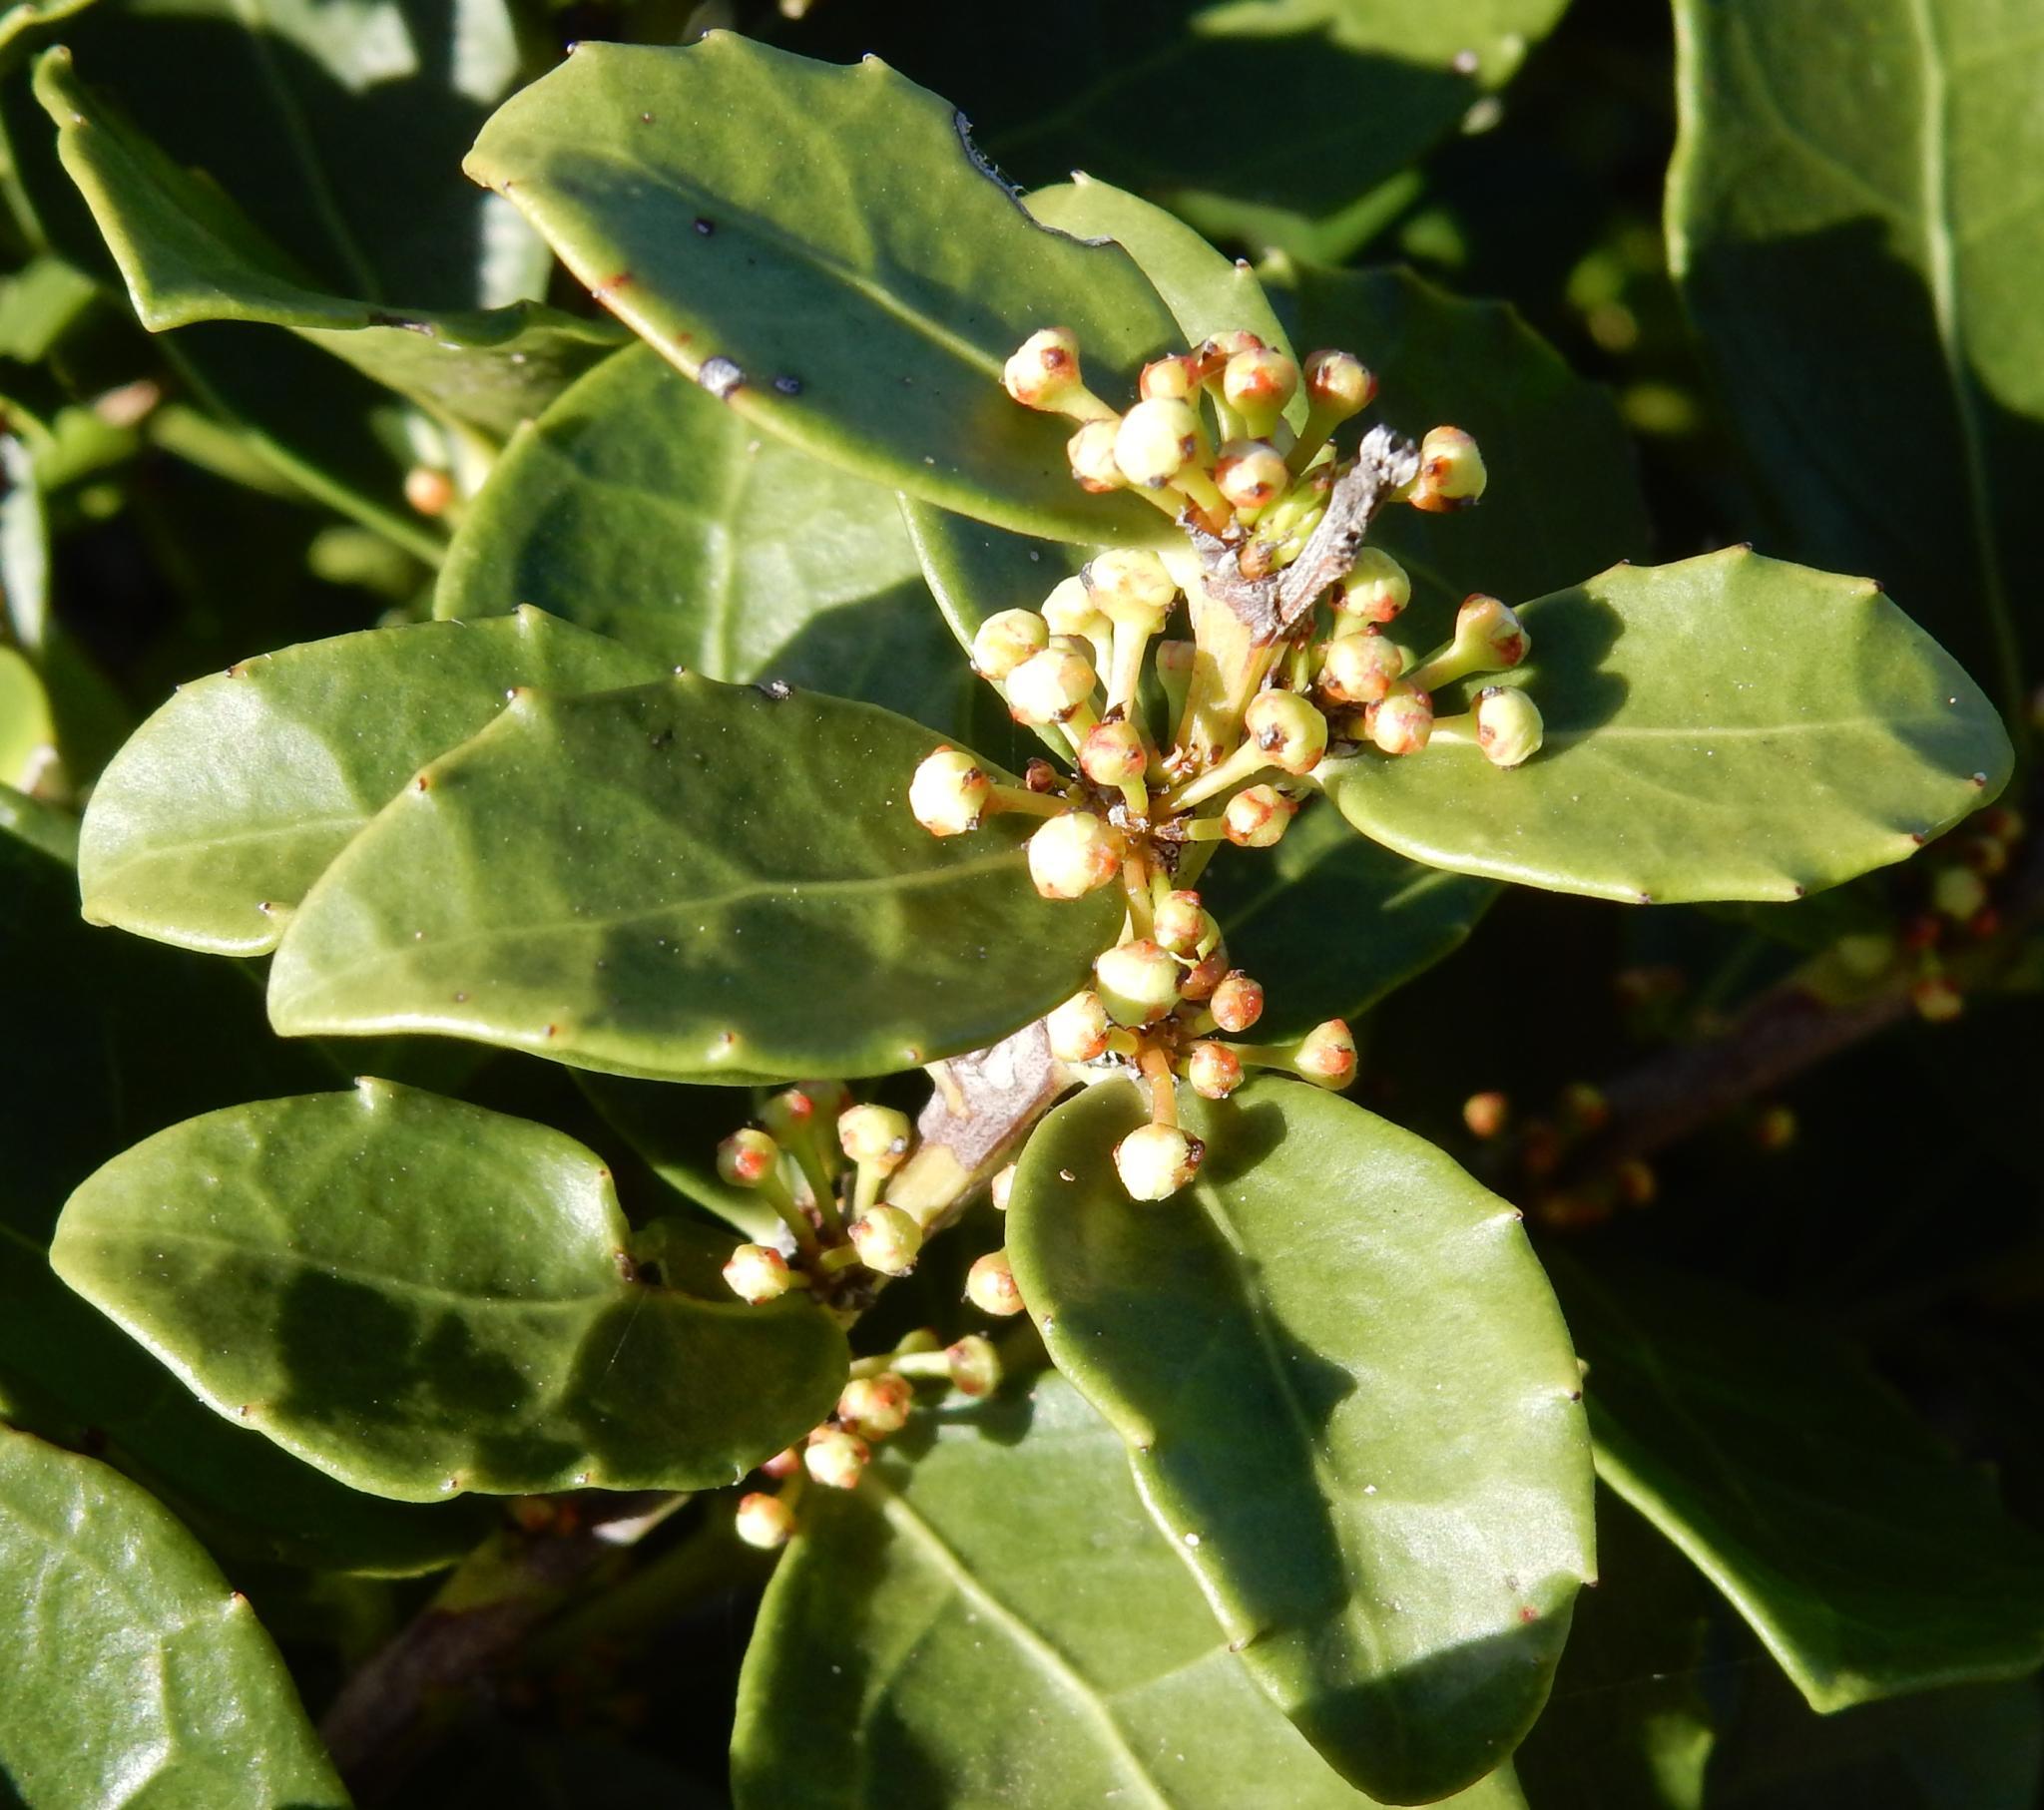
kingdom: Plantae
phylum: Tracheophyta
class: Magnoliopsida
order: Celastrales
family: Celastraceae
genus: Gymnosporia
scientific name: Gymnosporia procumbens
